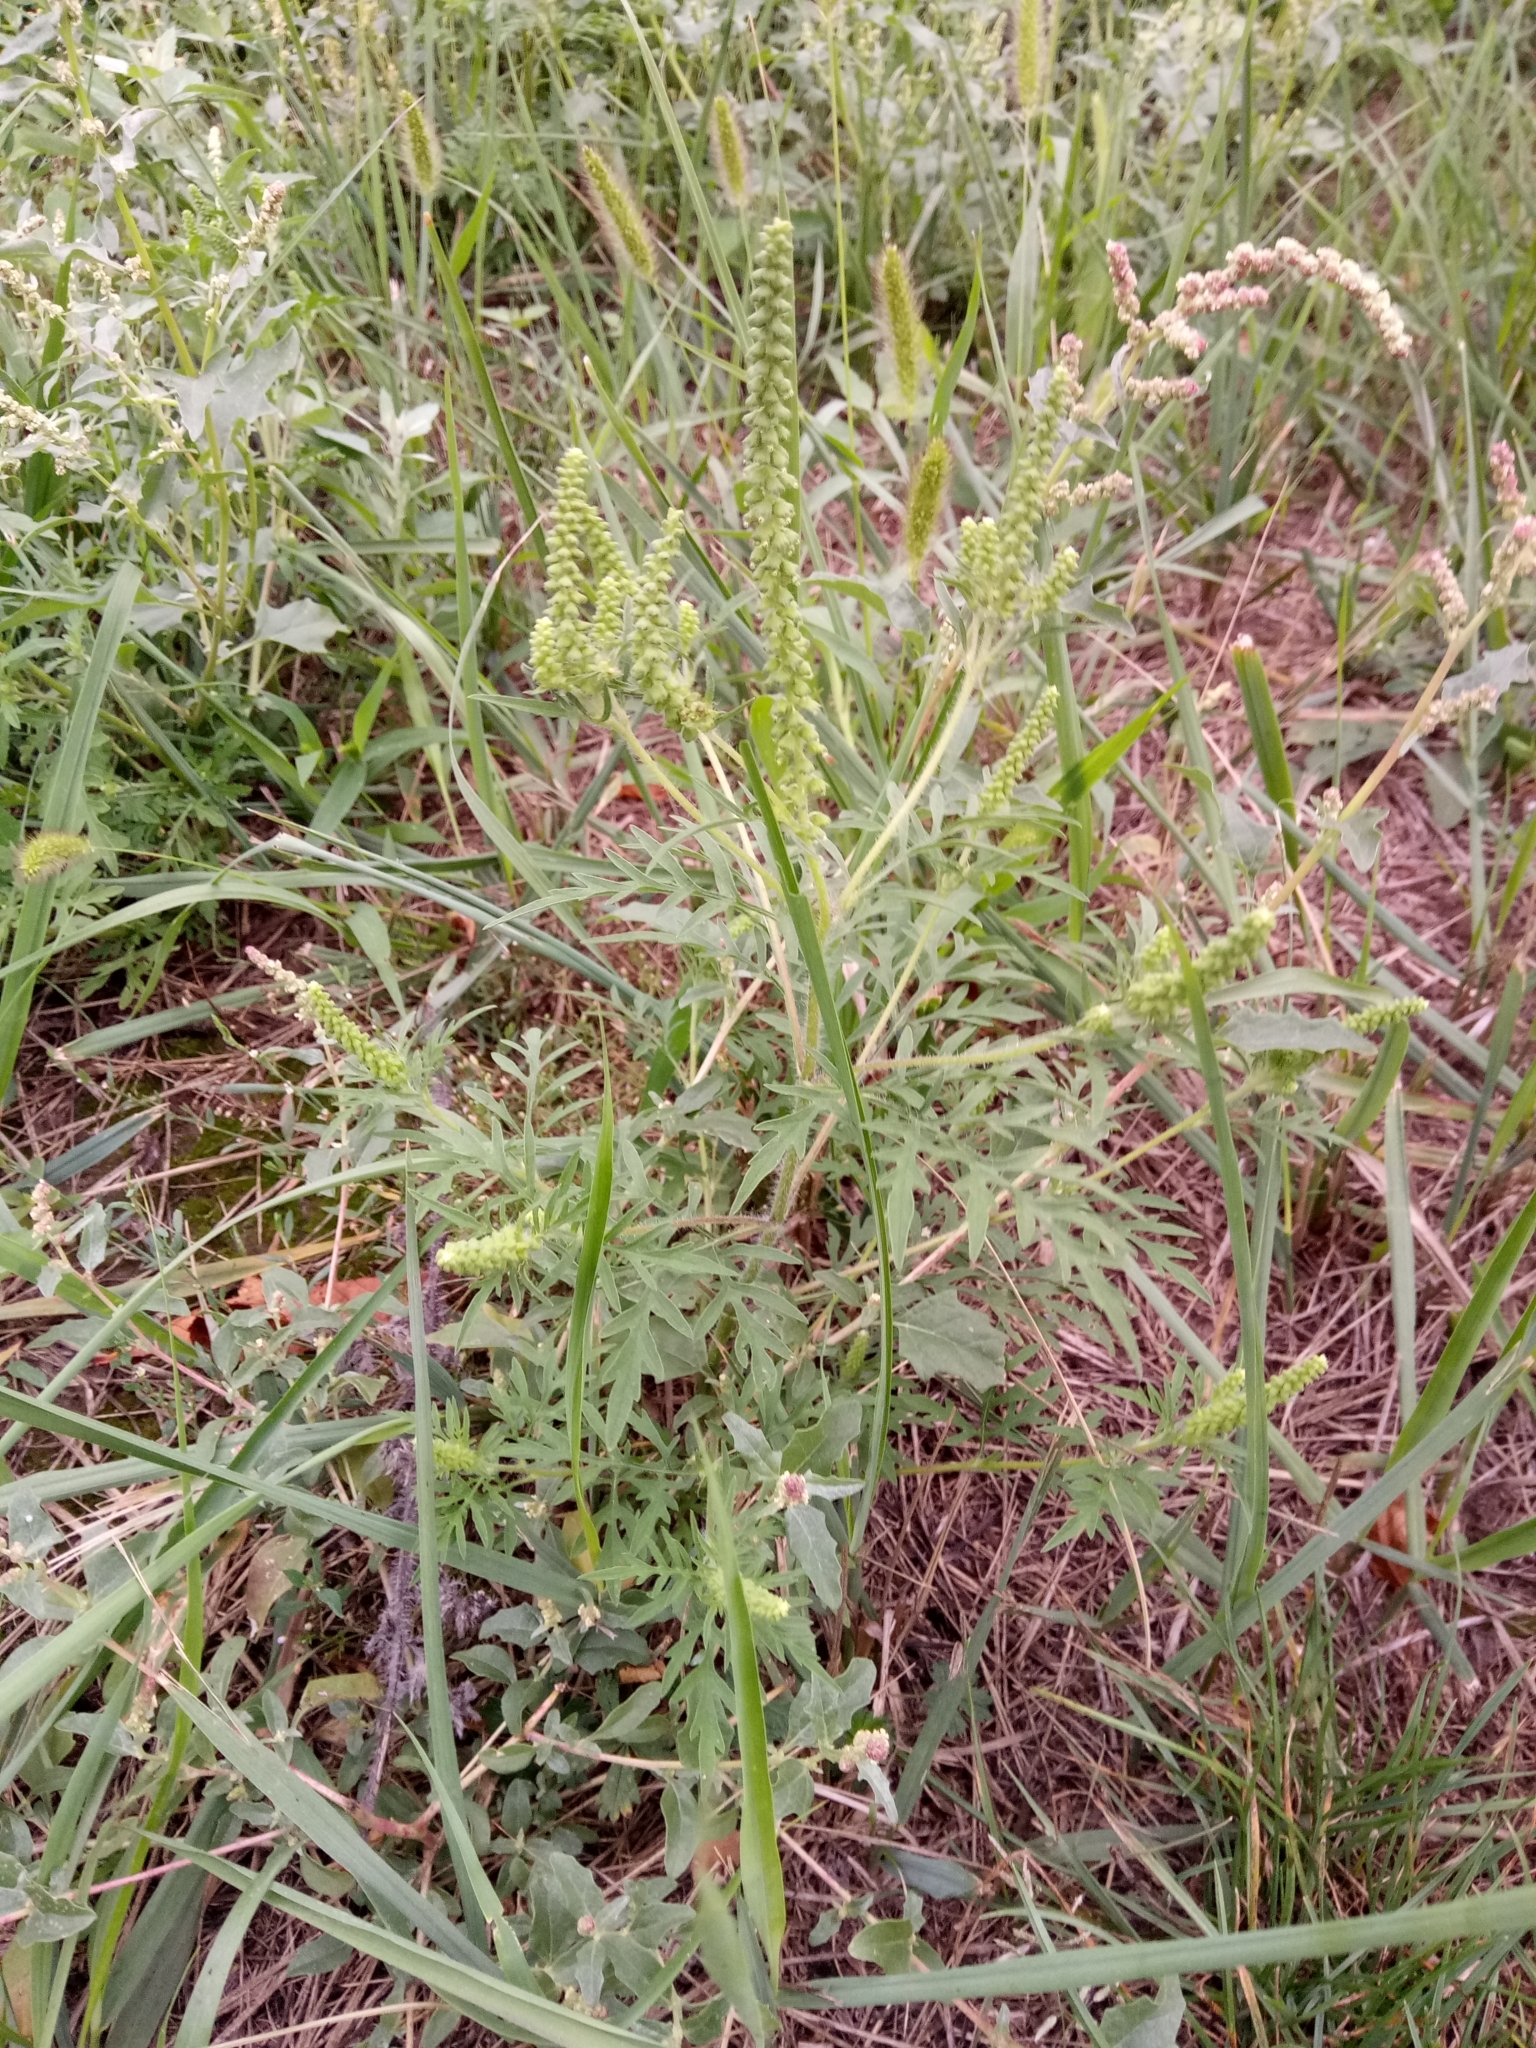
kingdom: Plantae
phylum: Tracheophyta
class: Magnoliopsida
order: Asterales
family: Asteraceae
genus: Ambrosia
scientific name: Ambrosia artemisiifolia
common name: Annual ragweed
